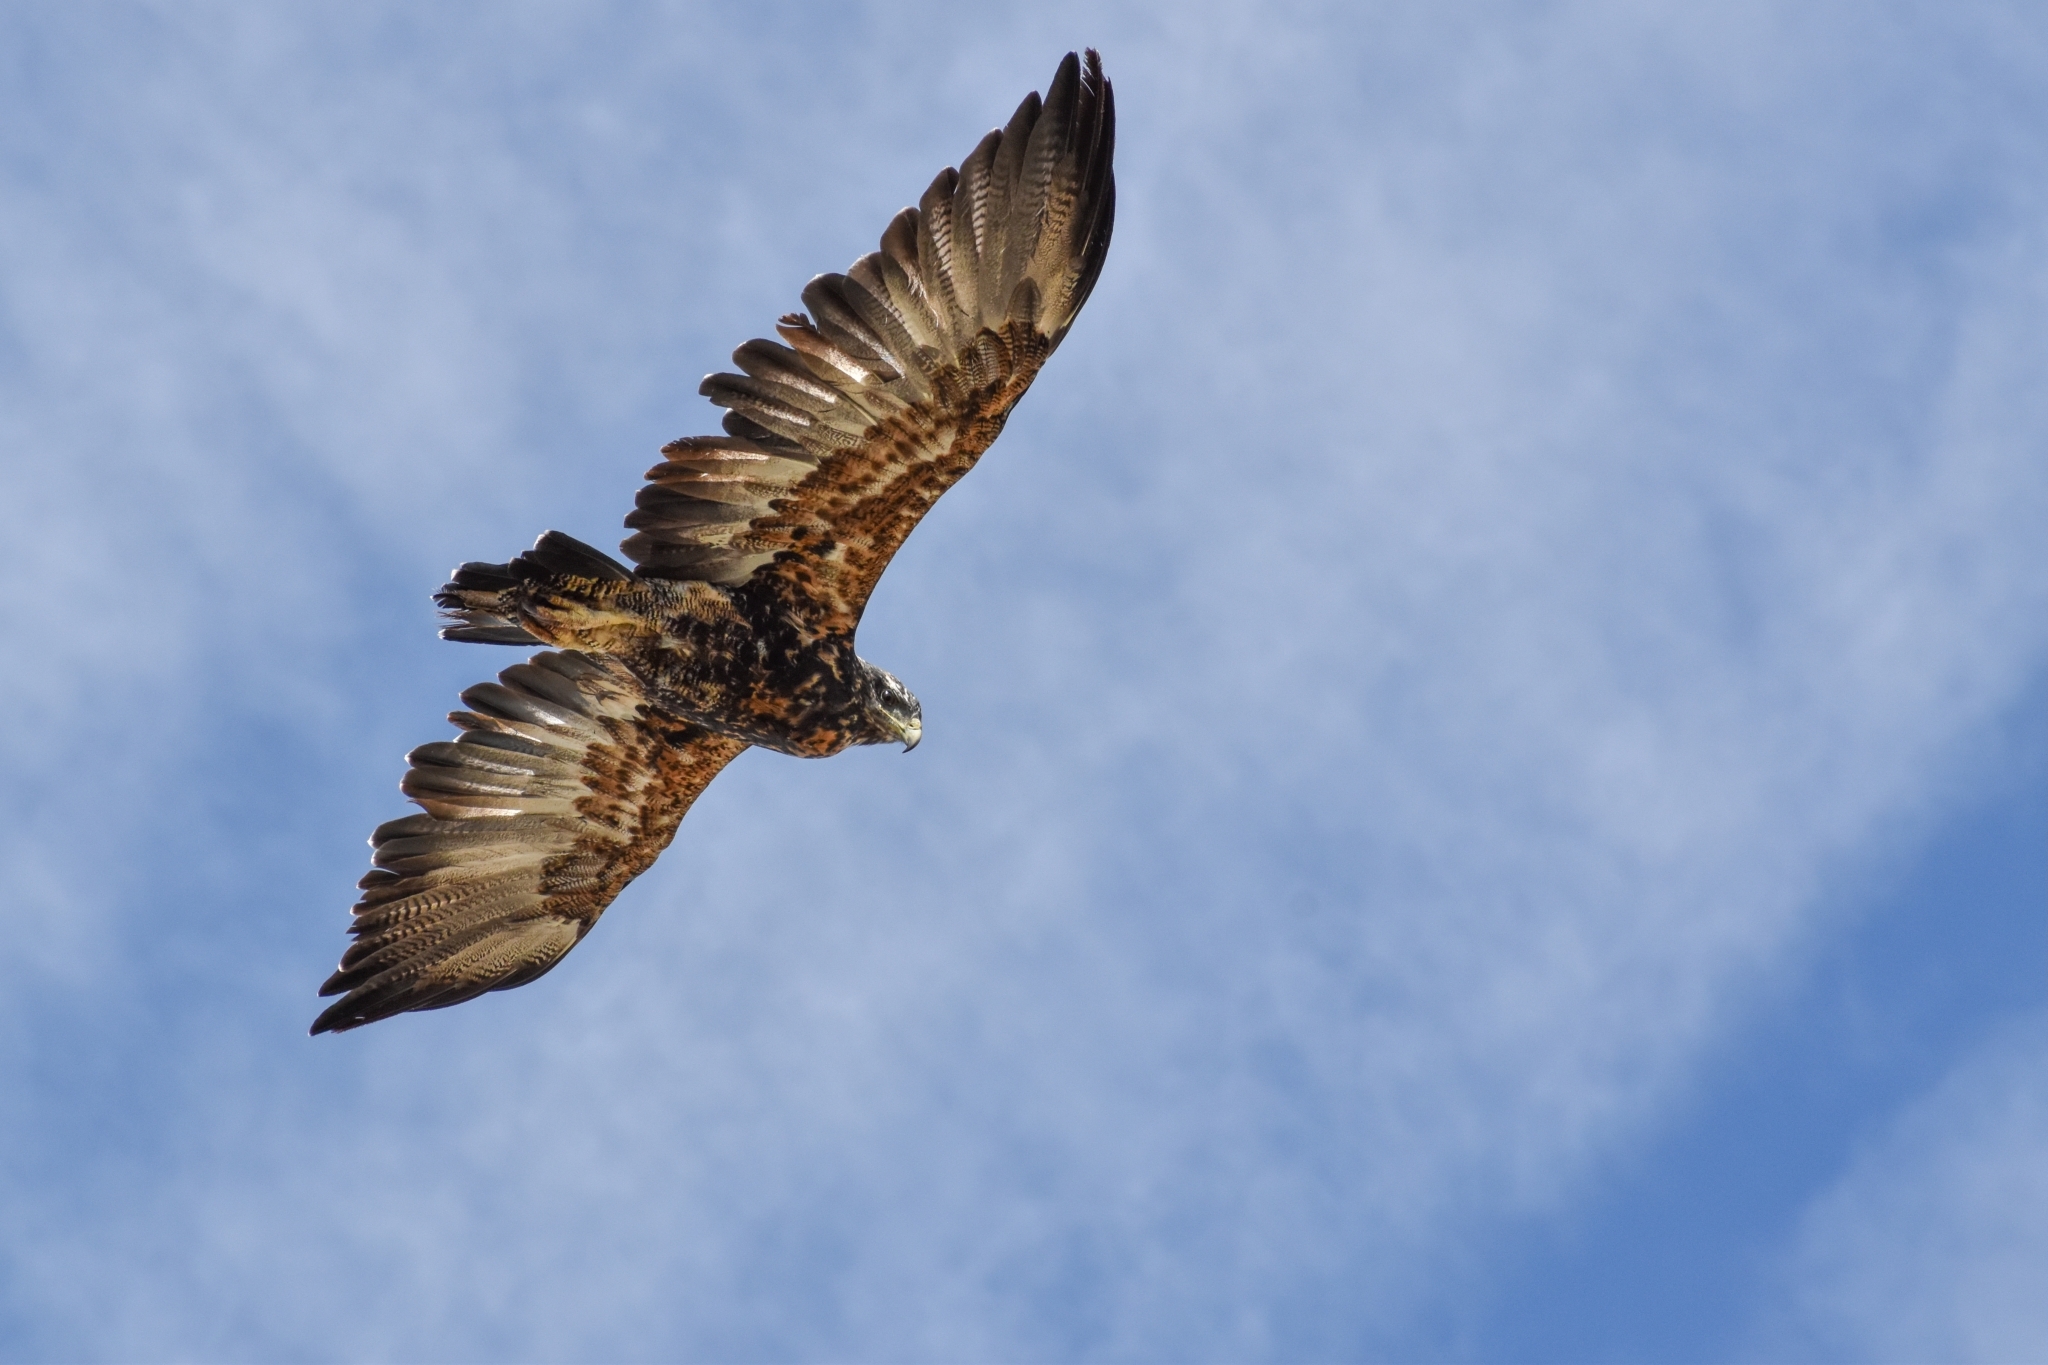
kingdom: Animalia
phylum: Chordata
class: Aves
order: Accipitriformes
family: Accipitridae
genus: Geranoaetus
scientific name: Geranoaetus melanoleucus
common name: Black-chested buzzard-eagle
